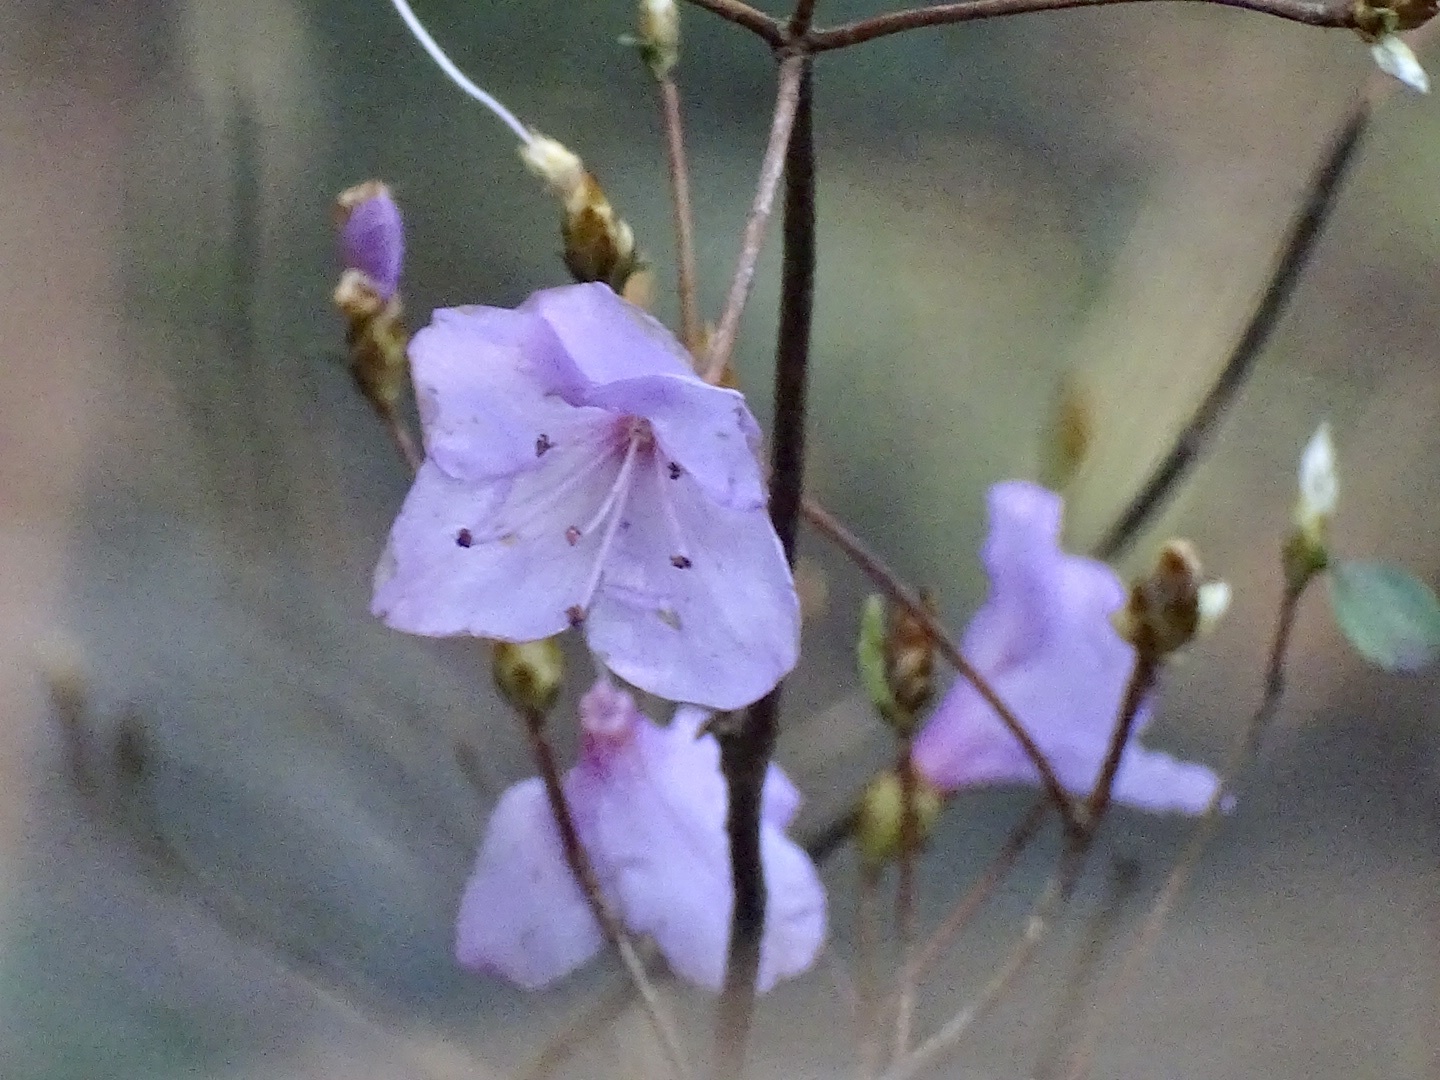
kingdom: Plantae
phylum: Tracheophyta
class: Magnoliopsida
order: Ericales
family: Ericaceae
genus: Rhododendron
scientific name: Rhododendron farrerae
